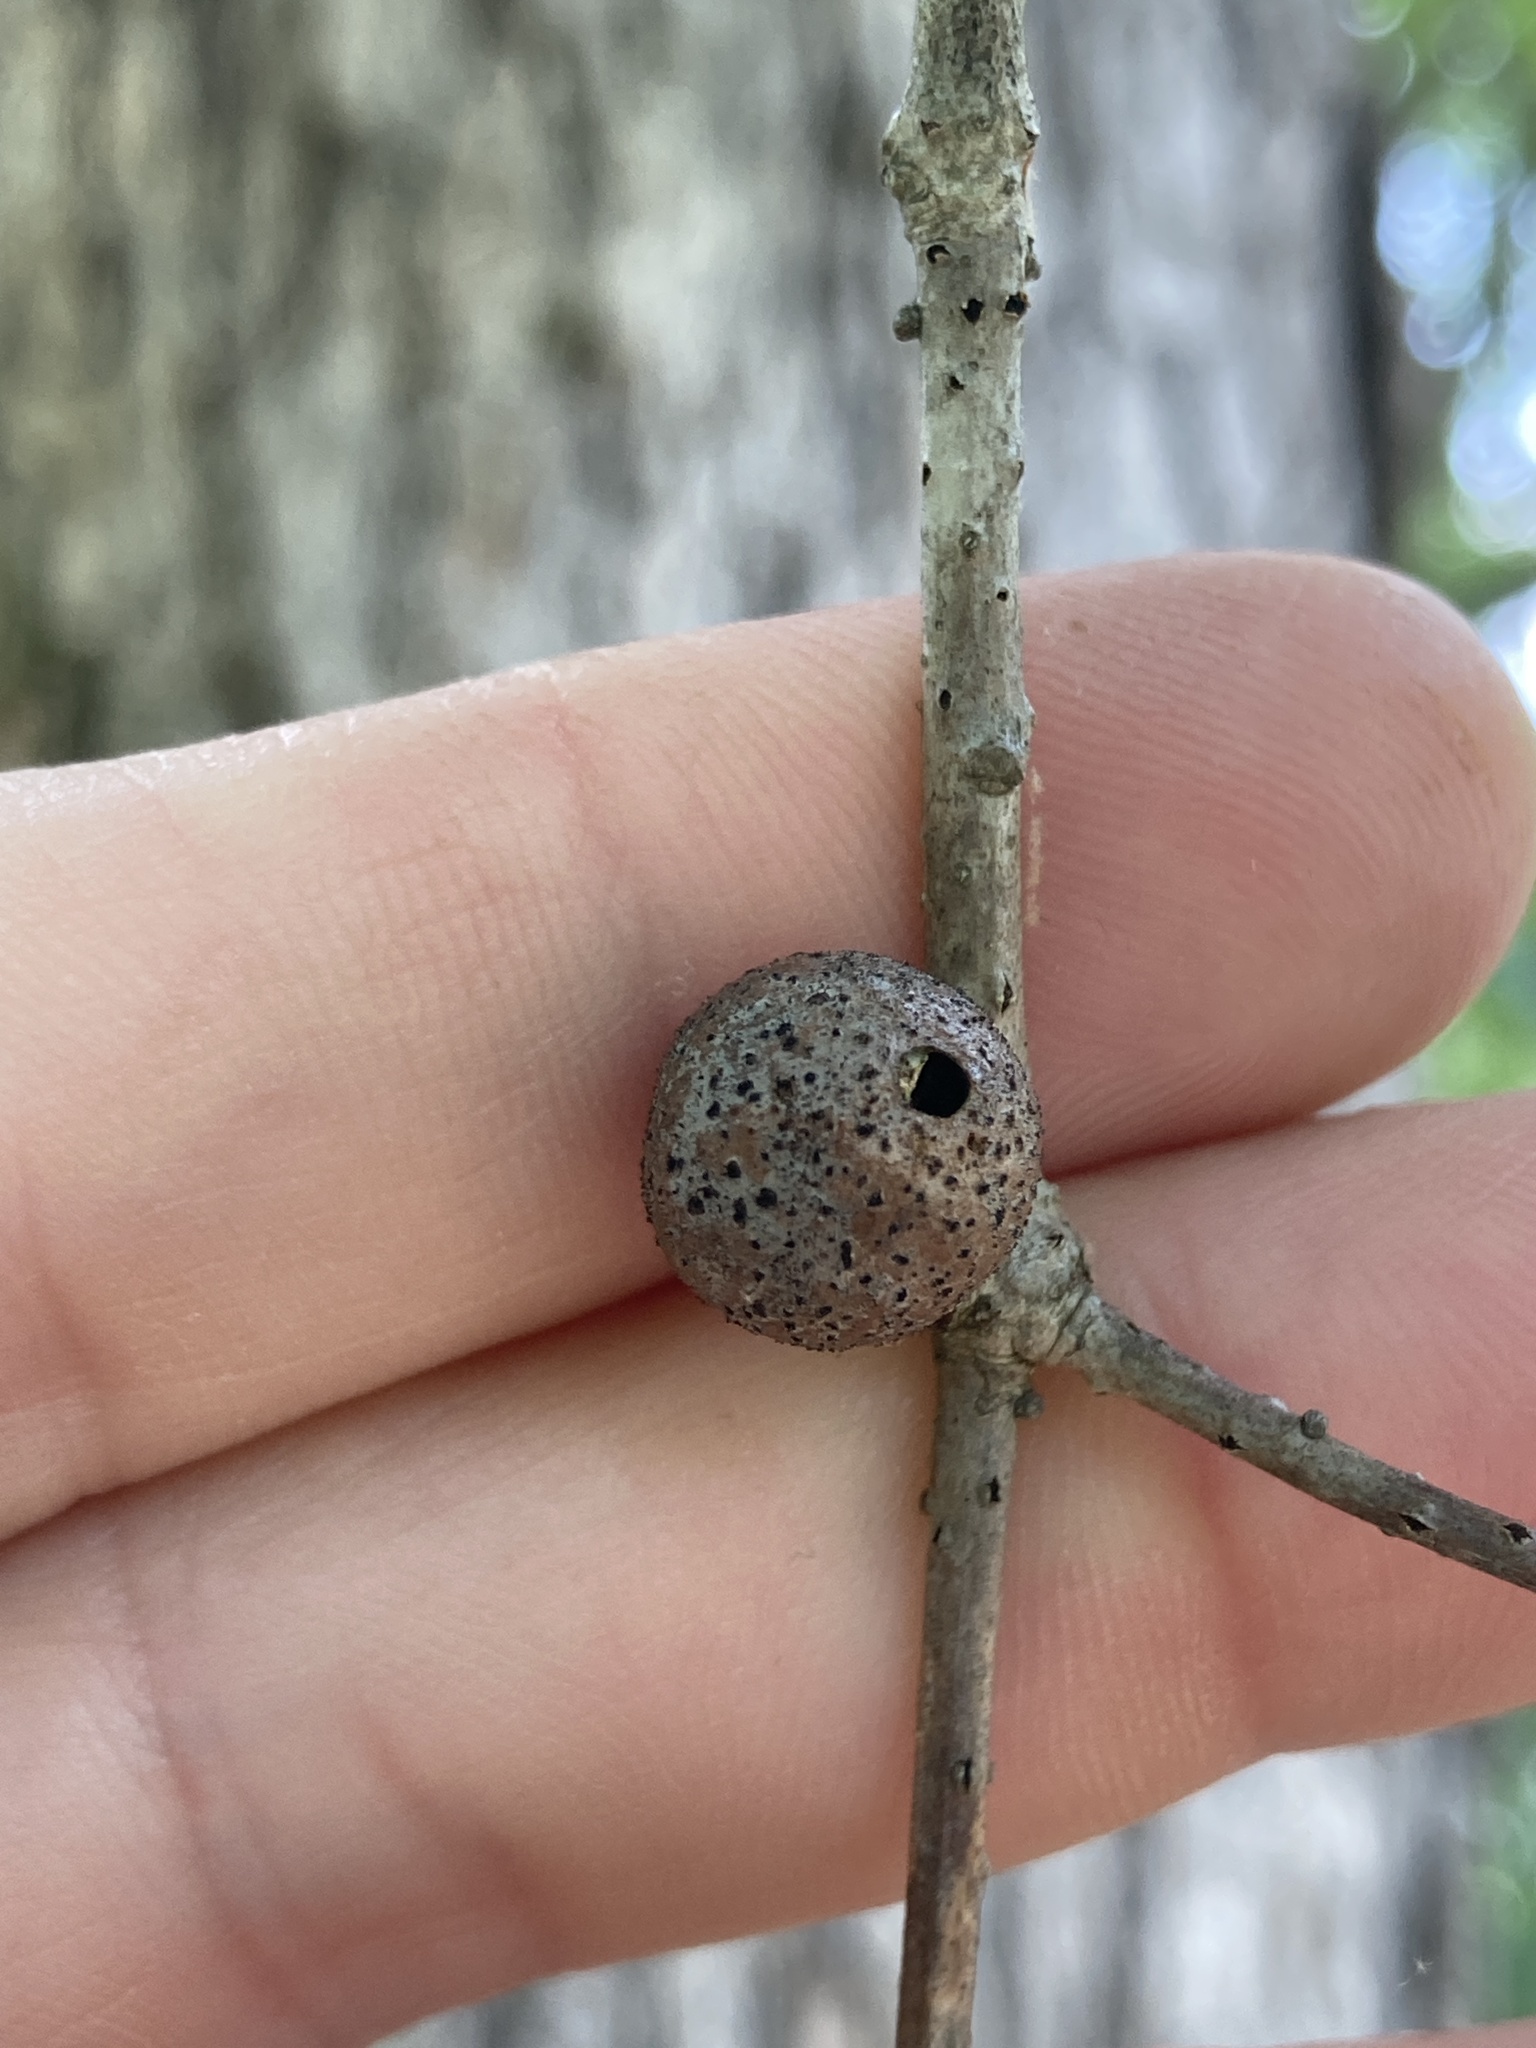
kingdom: Animalia
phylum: Arthropoda
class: Insecta
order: Hymenoptera
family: Cynipidae
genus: Disholcaspis
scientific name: Disholcaspis quercusglobulus
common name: Round bullet gall wasp
